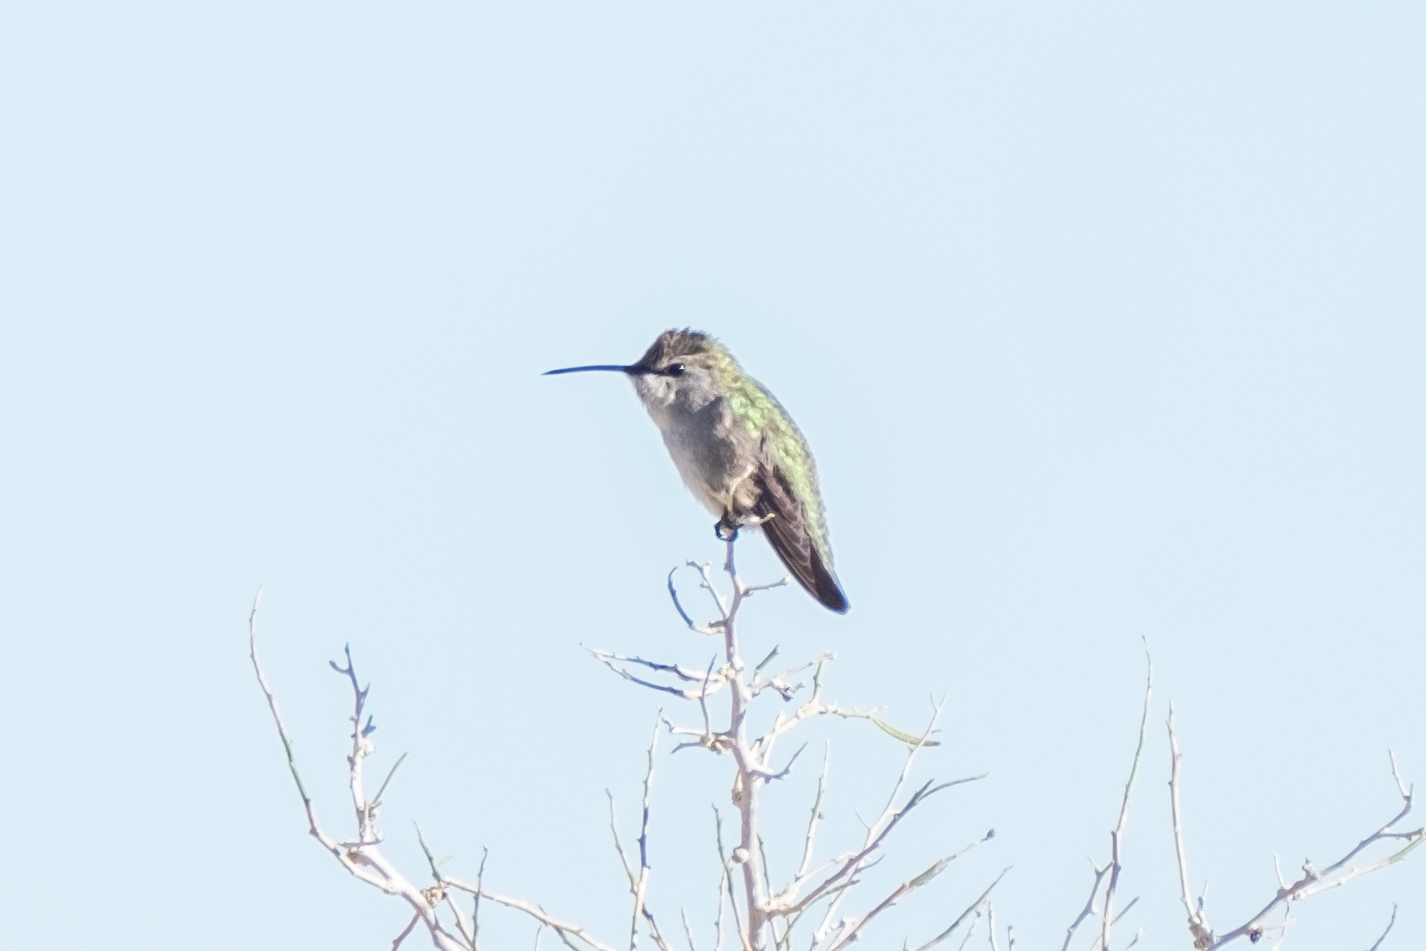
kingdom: Animalia
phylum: Chordata
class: Aves
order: Apodiformes
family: Trochilidae
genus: Calypte
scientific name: Calypte costae
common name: Costa's hummingbird
